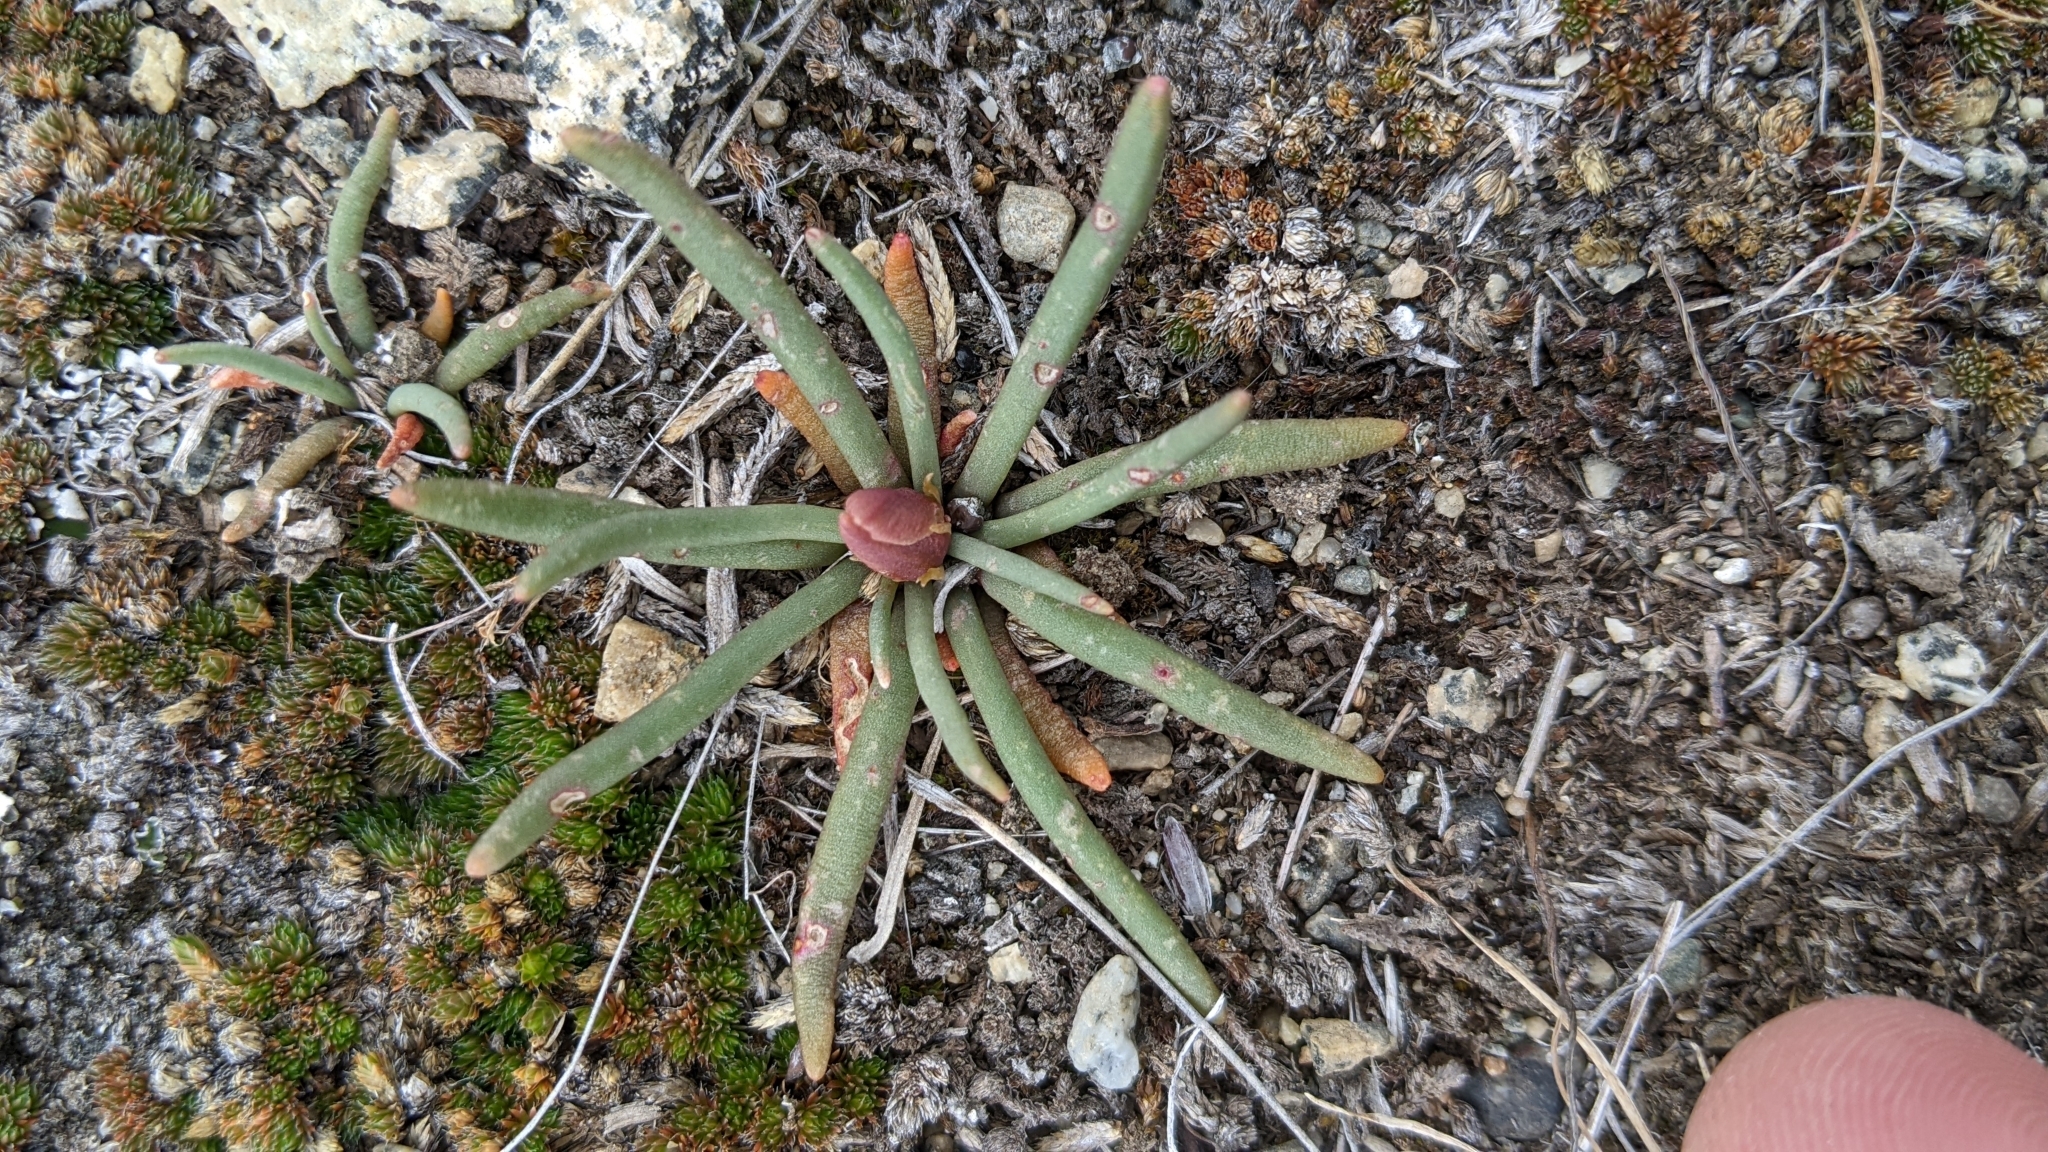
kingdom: Plantae
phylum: Tracheophyta
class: Magnoliopsida
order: Caryophyllales
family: Montiaceae
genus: Lewisia
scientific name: Lewisia rediviva
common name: Bitter-root
